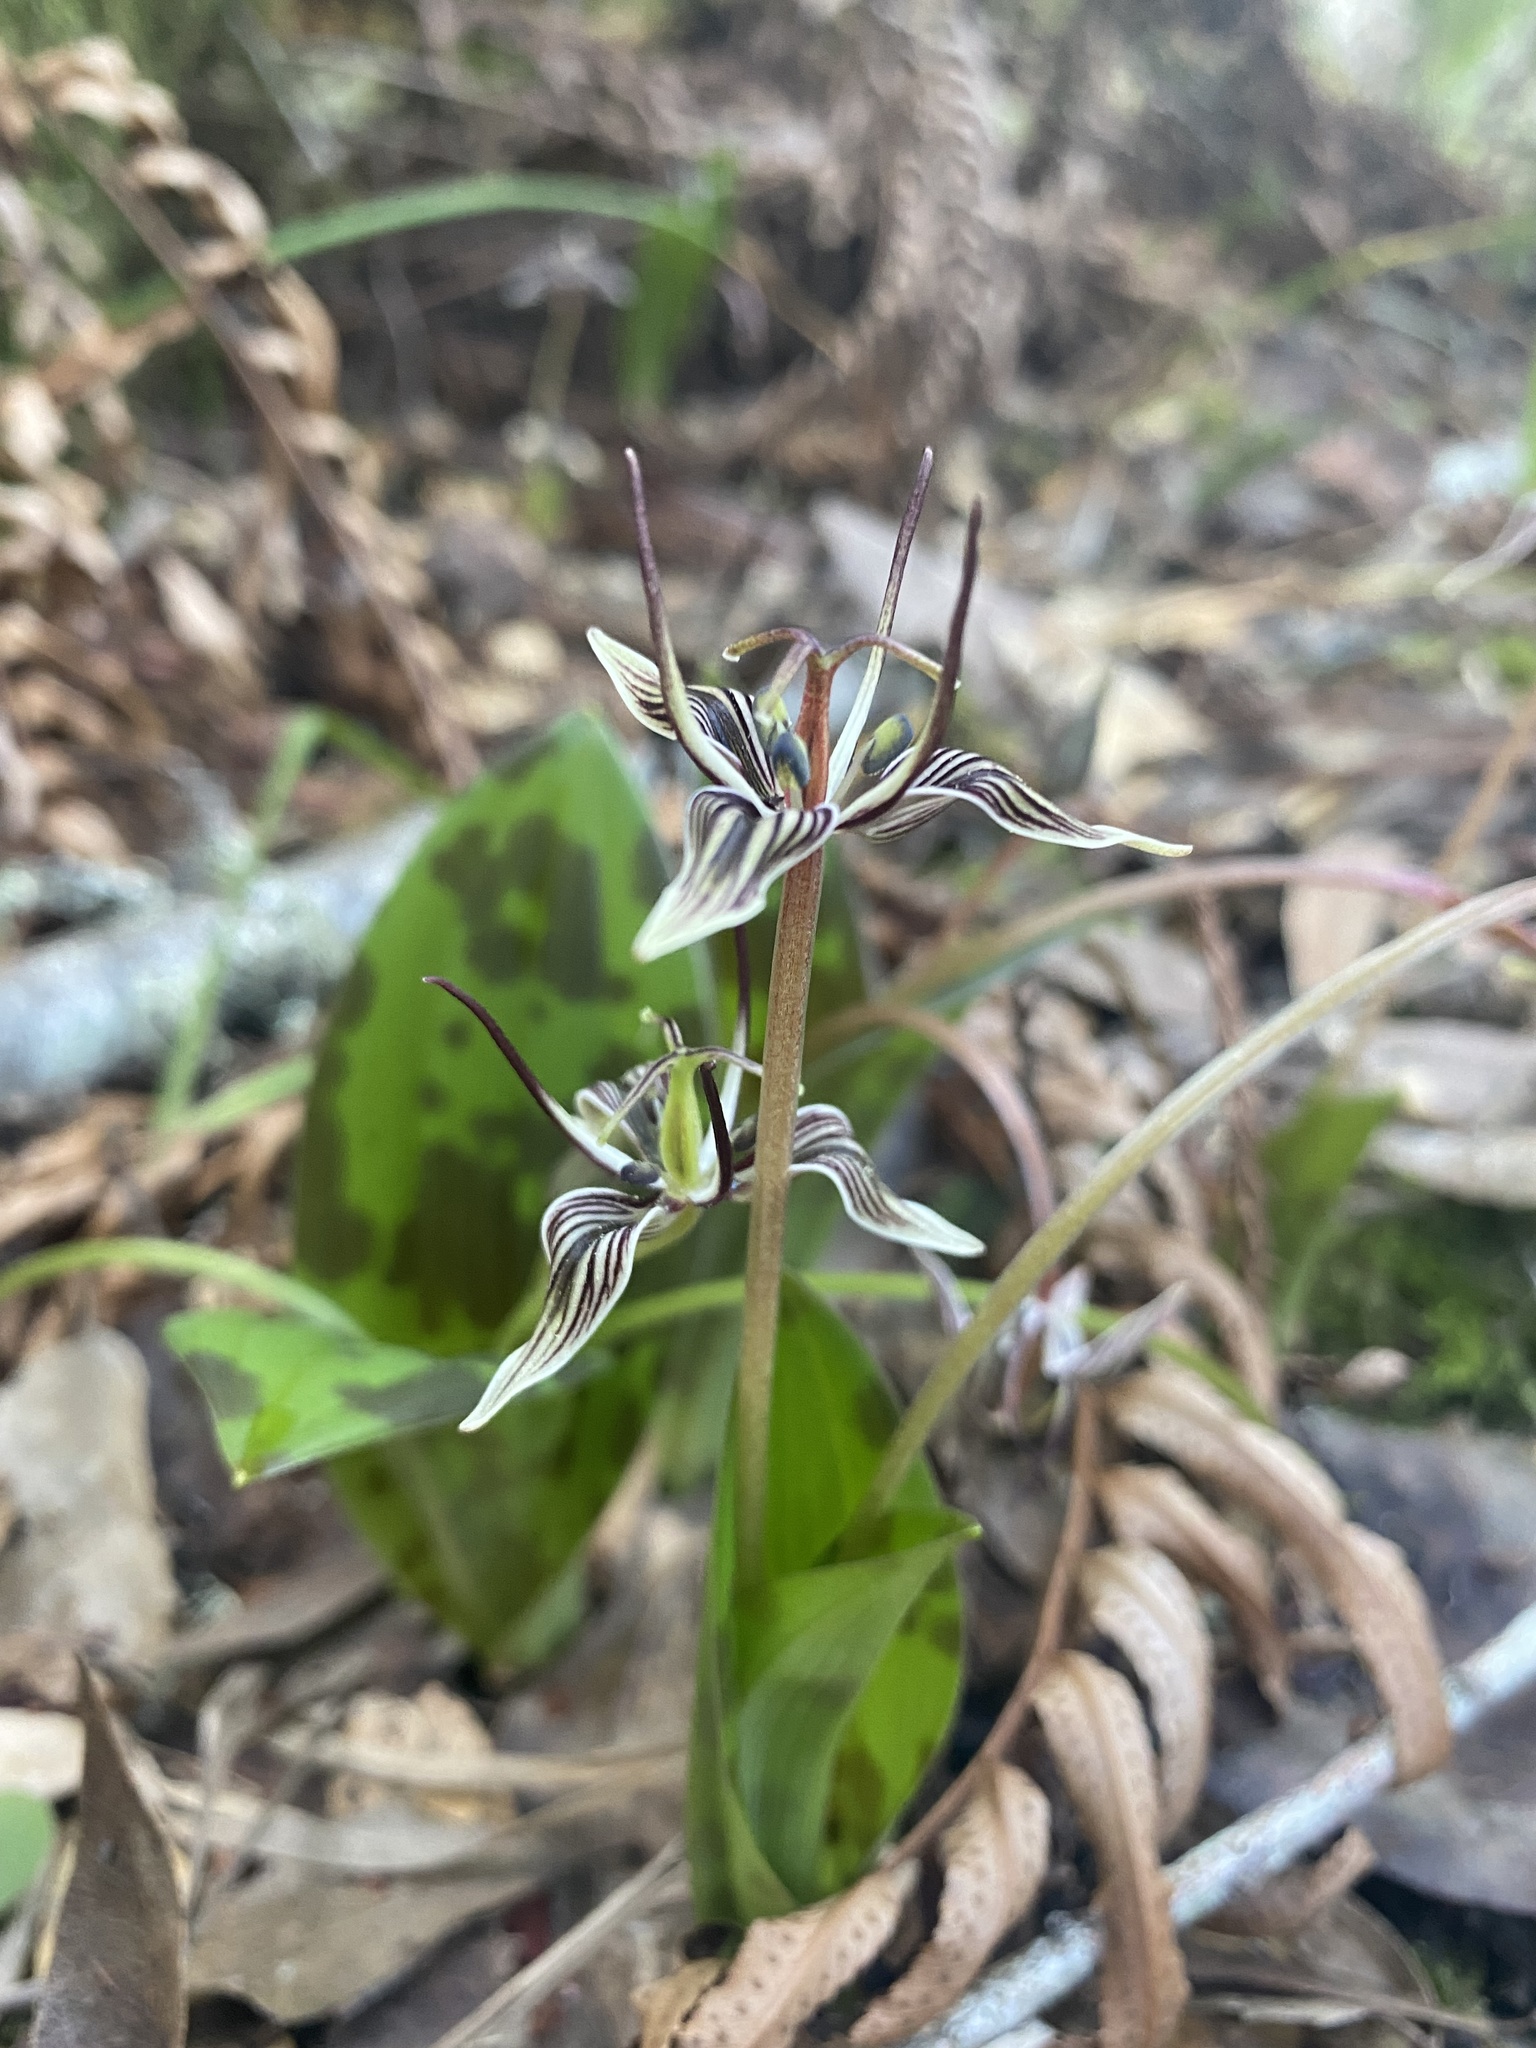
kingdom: Plantae
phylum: Tracheophyta
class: Liliopsida
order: Liliales
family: Liliaceae
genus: Scoliopus
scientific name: Scoliopus bigelovii
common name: Foetid adder's-tongue
